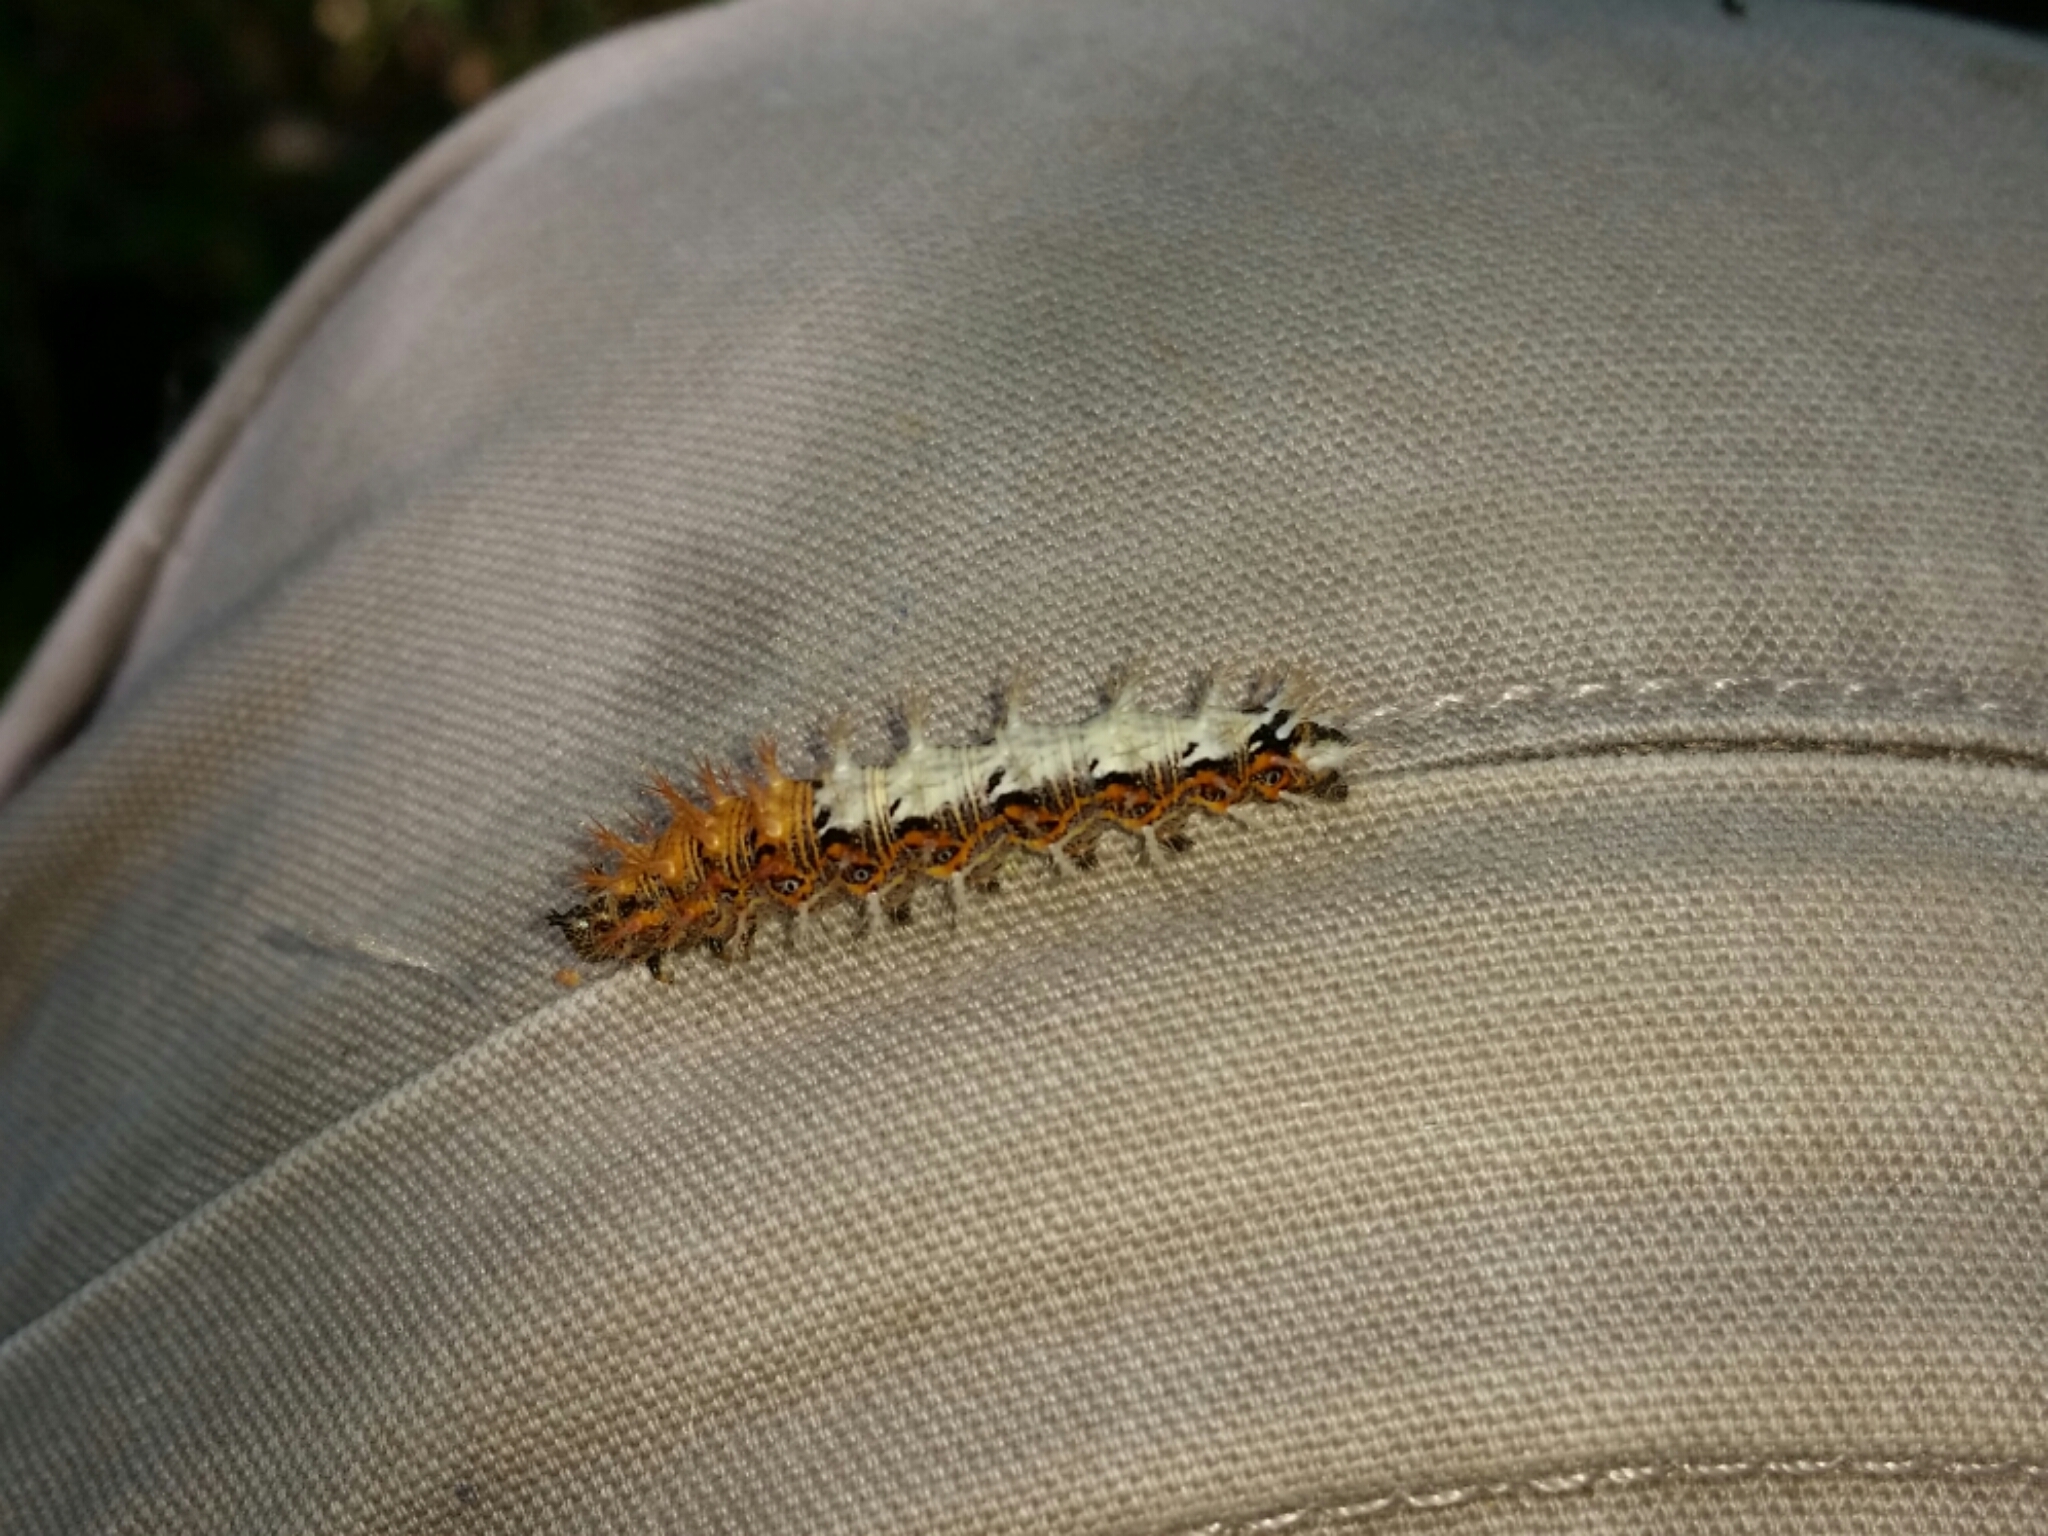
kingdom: Animalia
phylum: Arthropoda
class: Insecta
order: Lepidoptera
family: Nymphalidae
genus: Polygonia
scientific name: Polygonia c-album
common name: Comma
